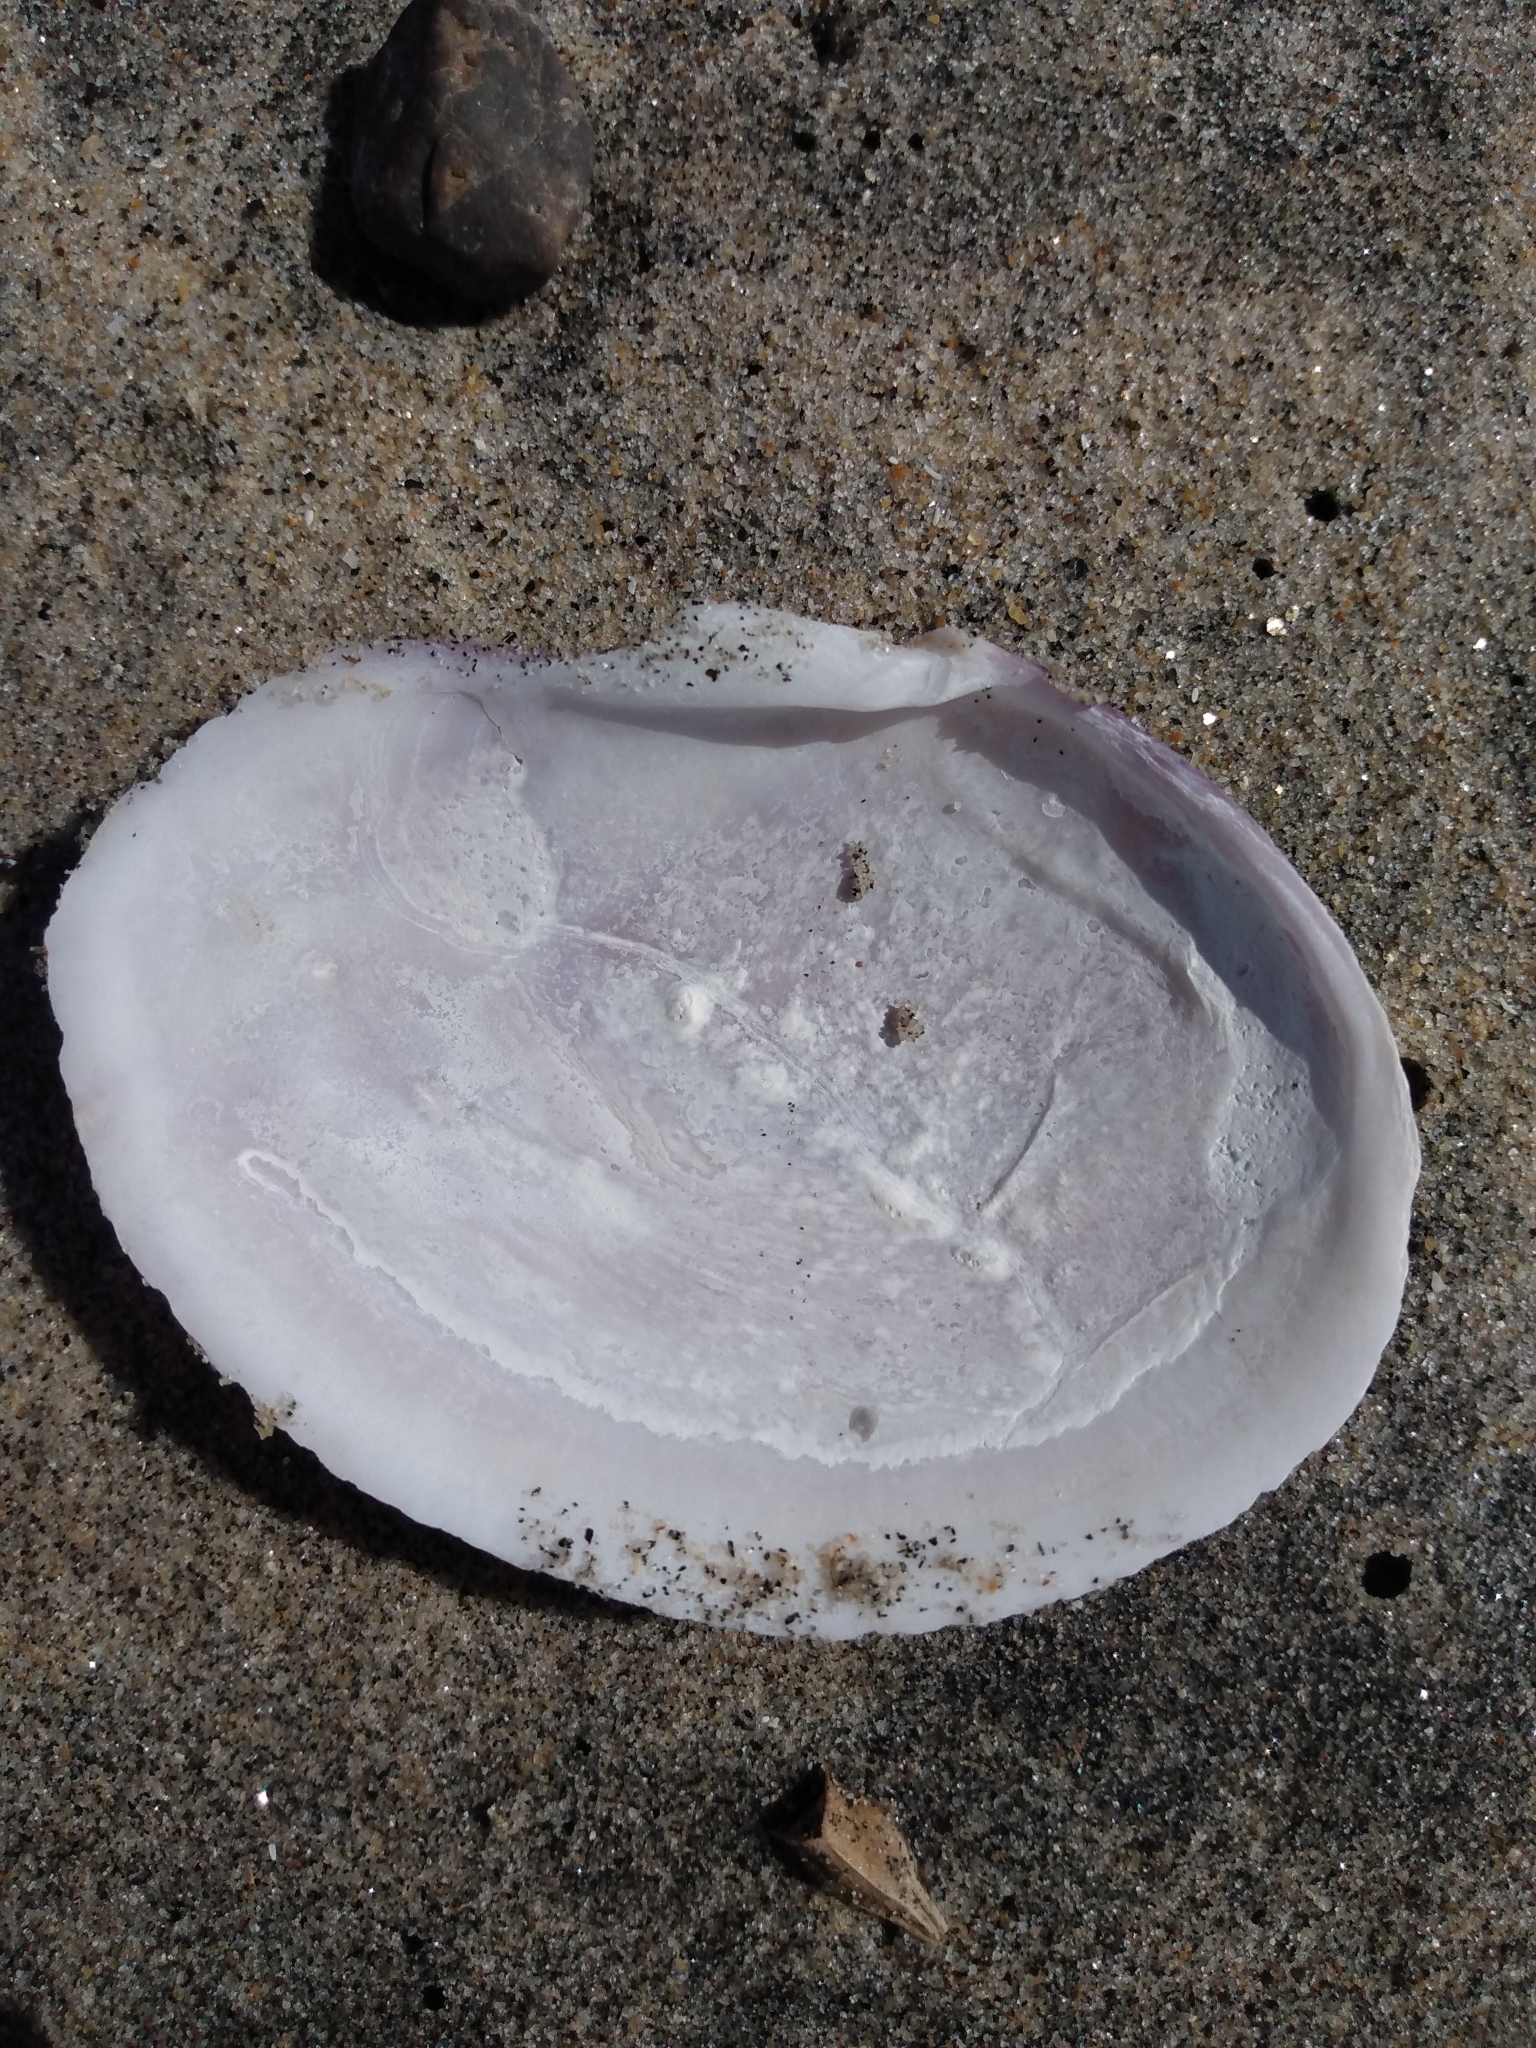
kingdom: Animalia
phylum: Mollusca
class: Bivalvia
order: Cardiida
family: Psammobiidae
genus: Nuttallia
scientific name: Nuttallia nuttallii
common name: California mahogany-clam
